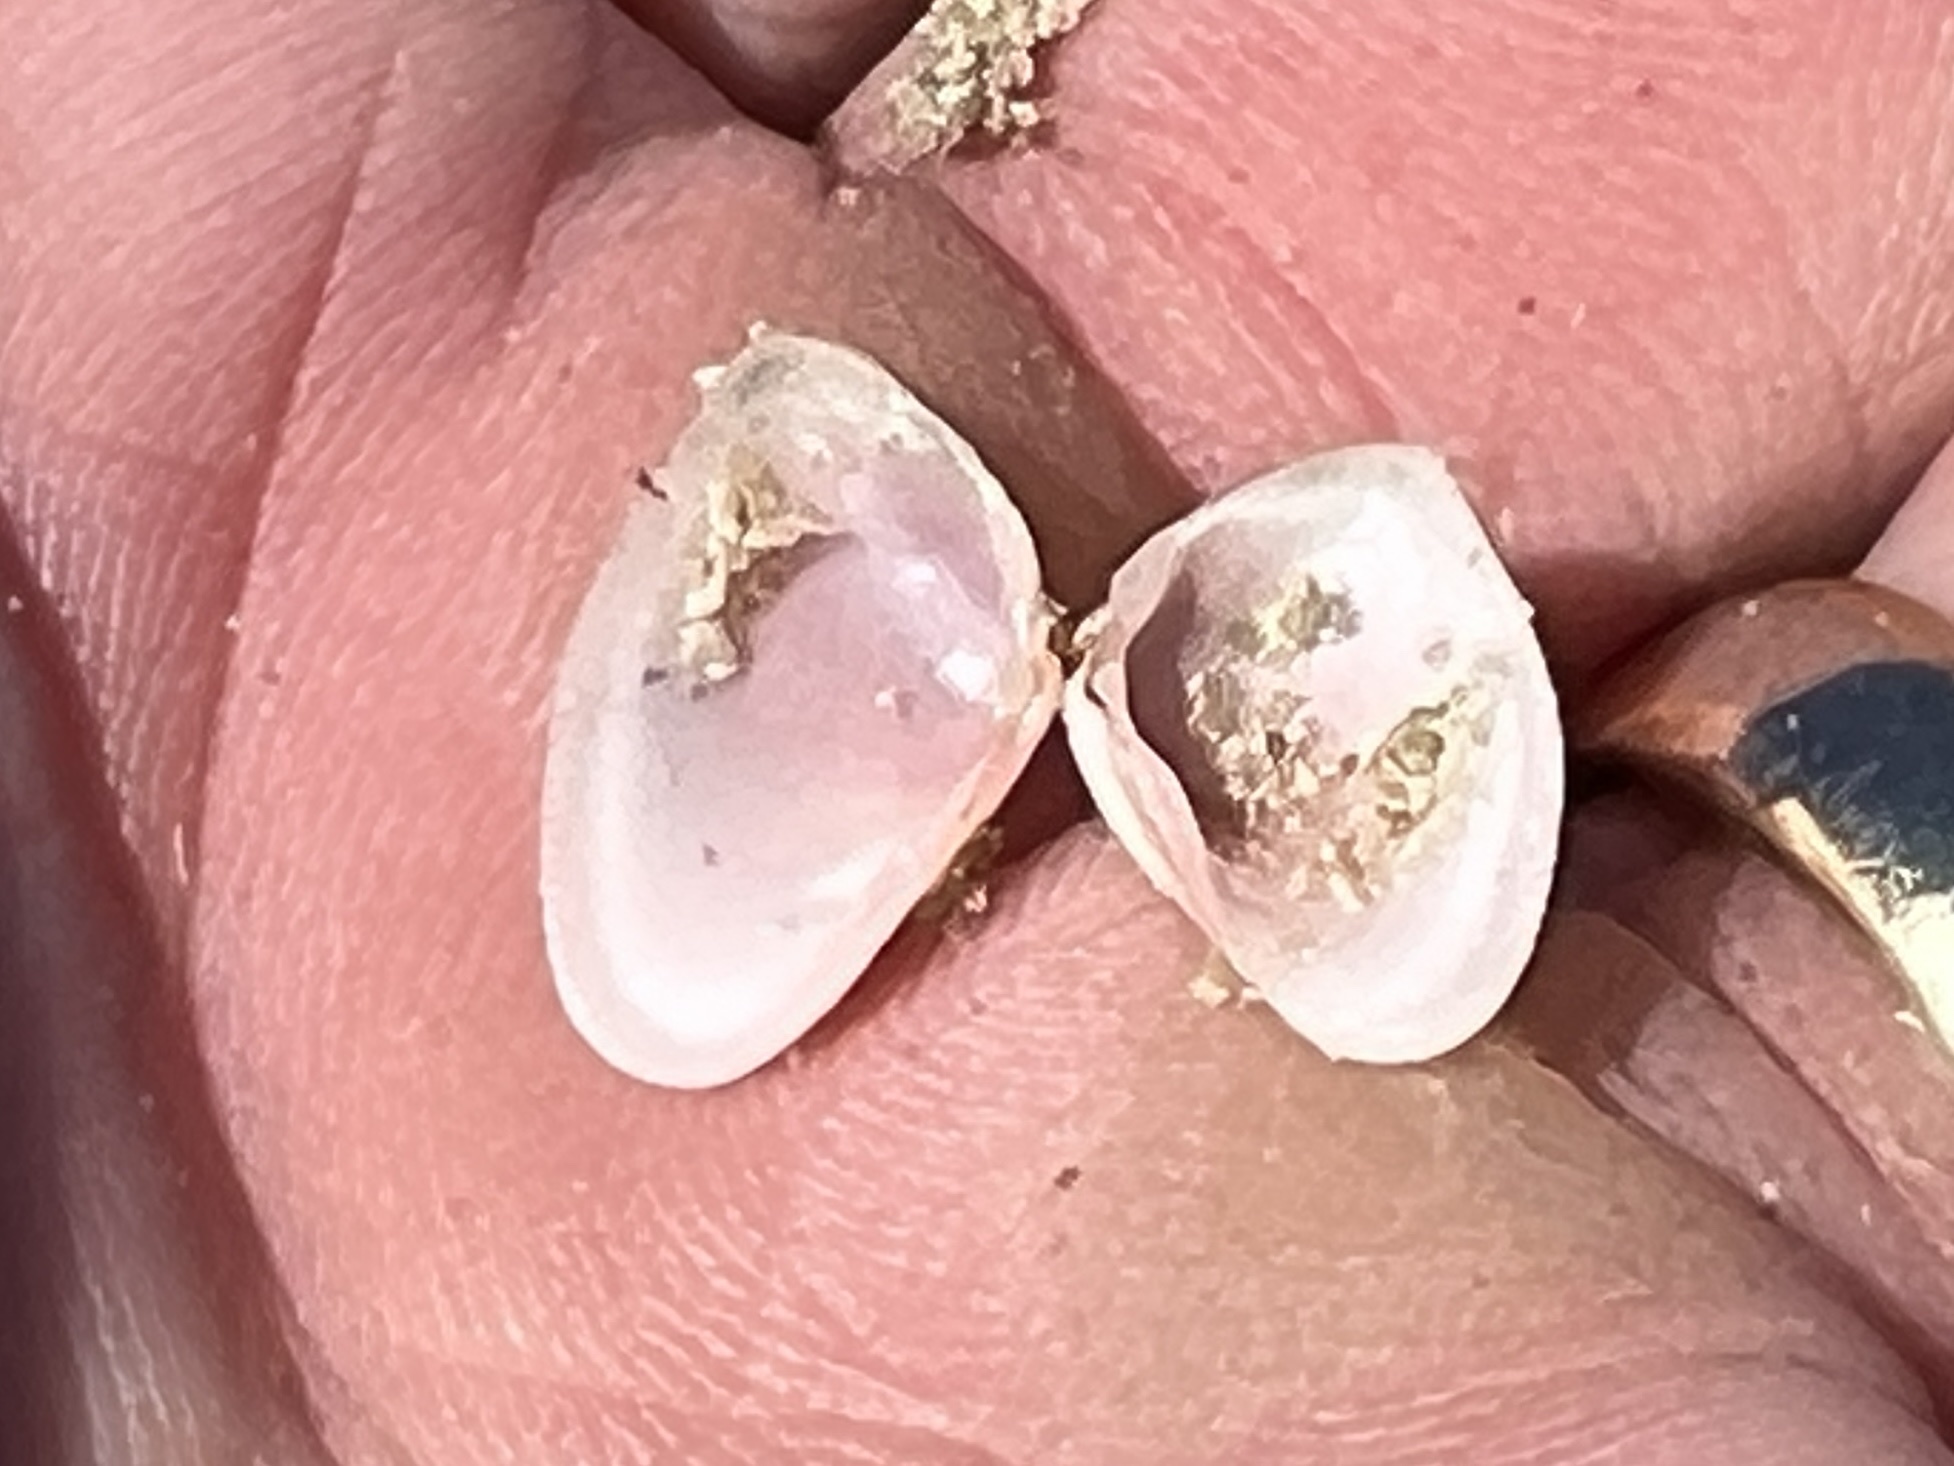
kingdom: Animalia
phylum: Mollusca
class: Bivalvia
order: Cardiida
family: Donacidae
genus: Donax
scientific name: Donax variabilis
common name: Butterfly shell
